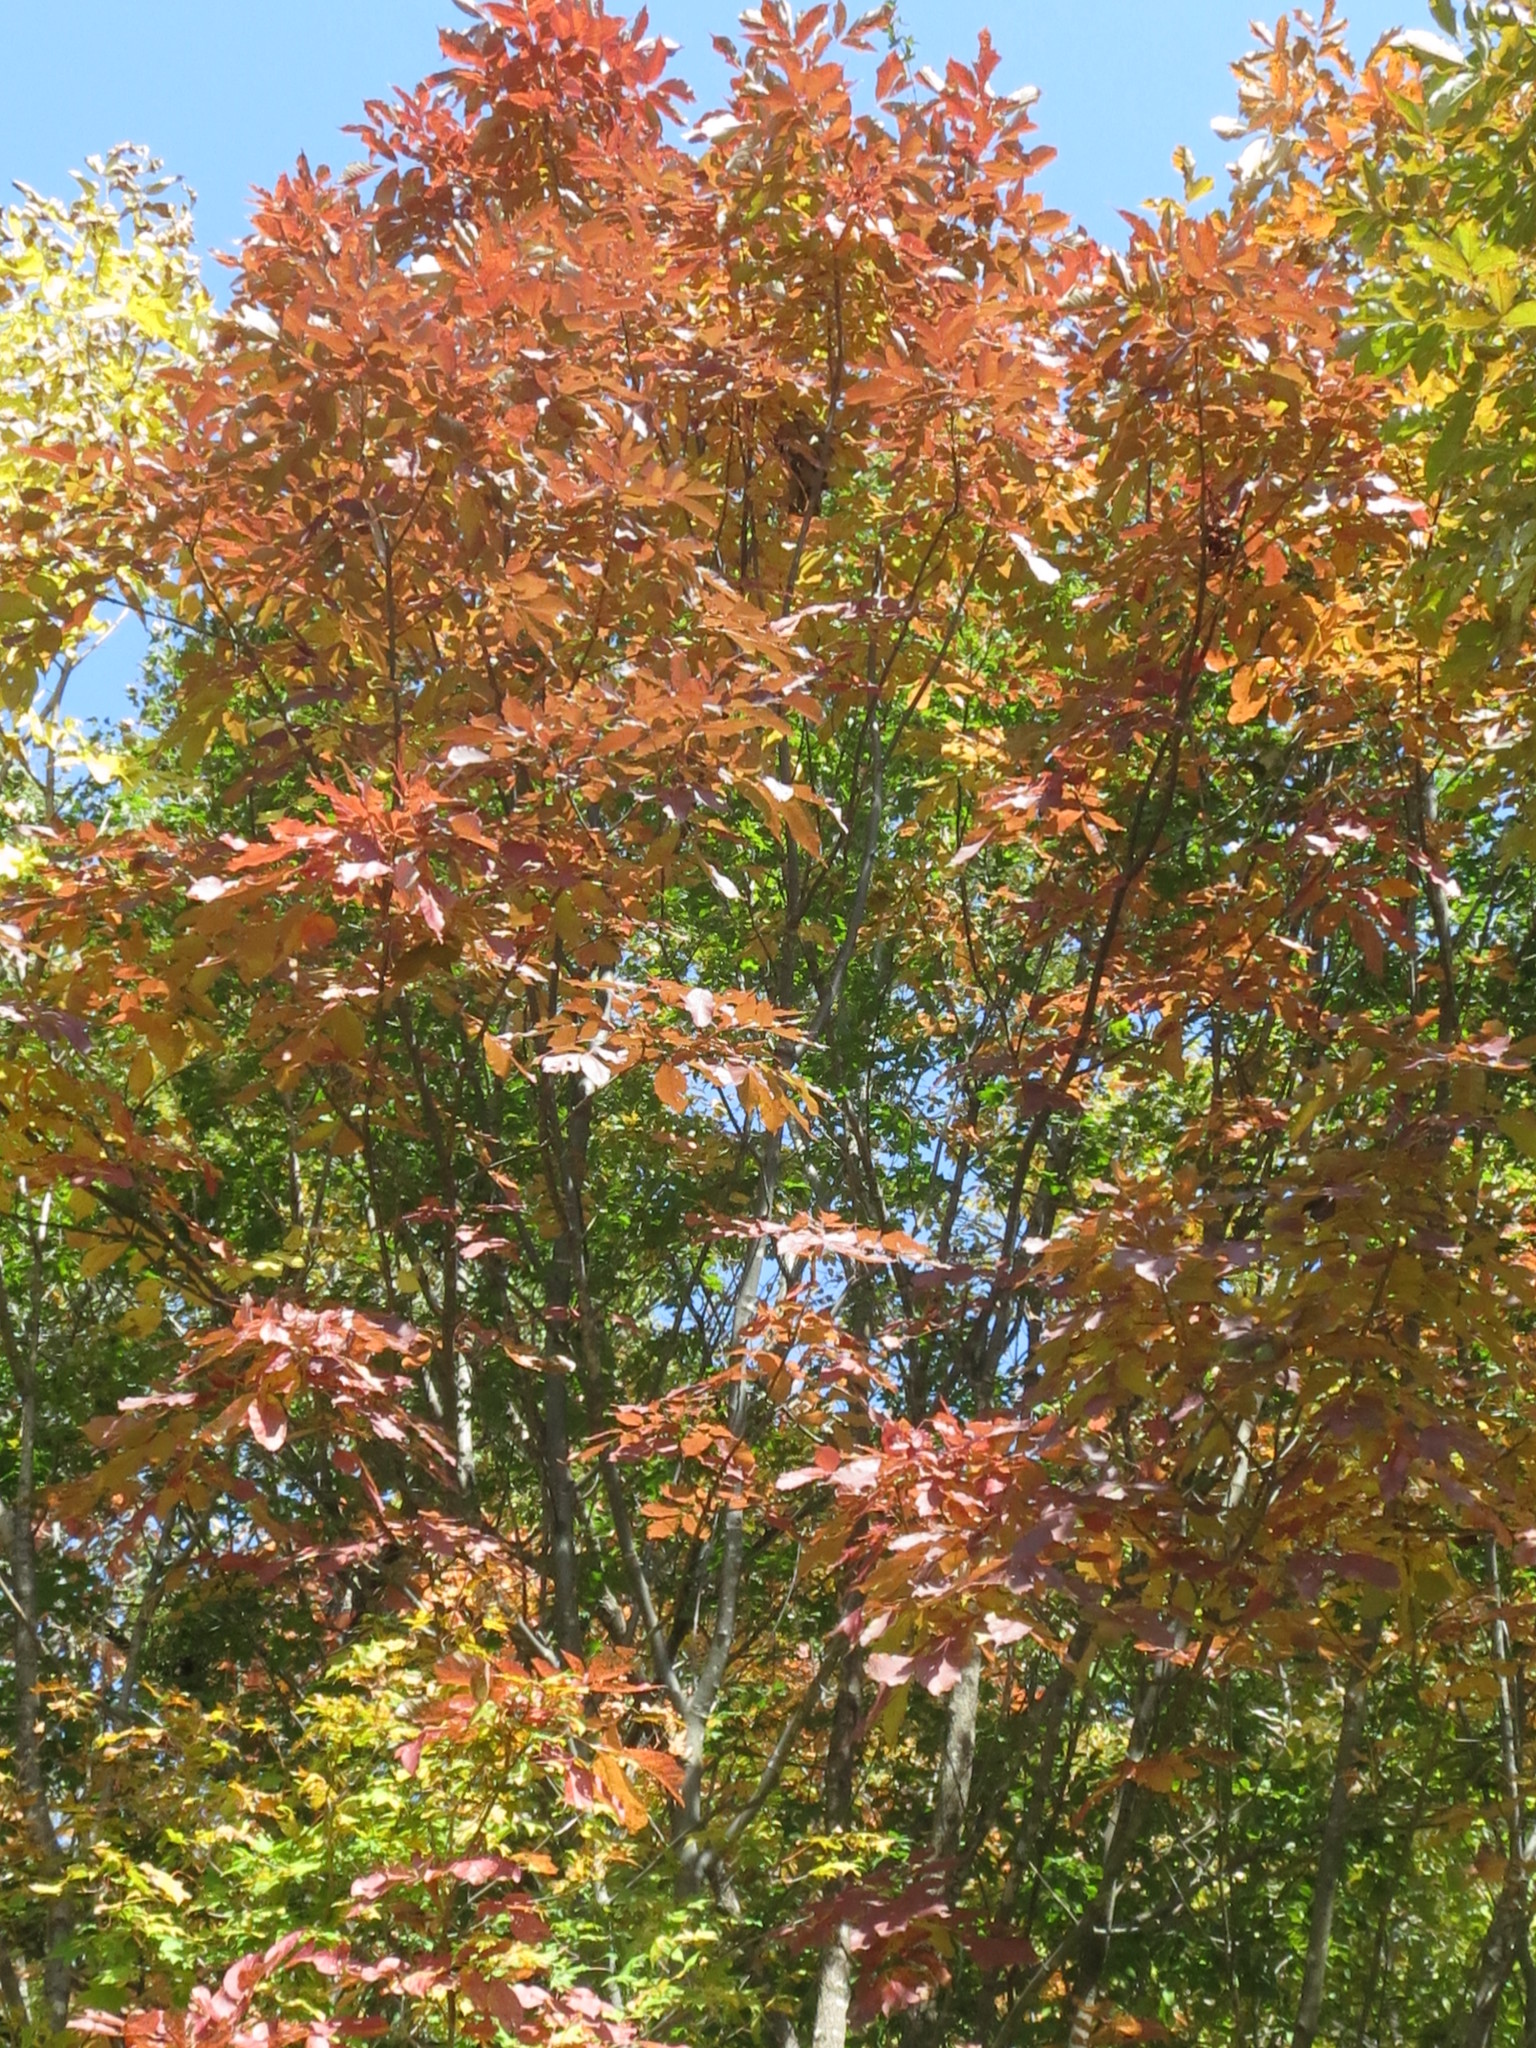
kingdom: Plantae
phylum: Tracheophyta
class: Magnoliopsida
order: Lamiales
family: Oleaceae
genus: Fraxinus
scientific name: Fraxinus chinensis
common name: Chinese ash
